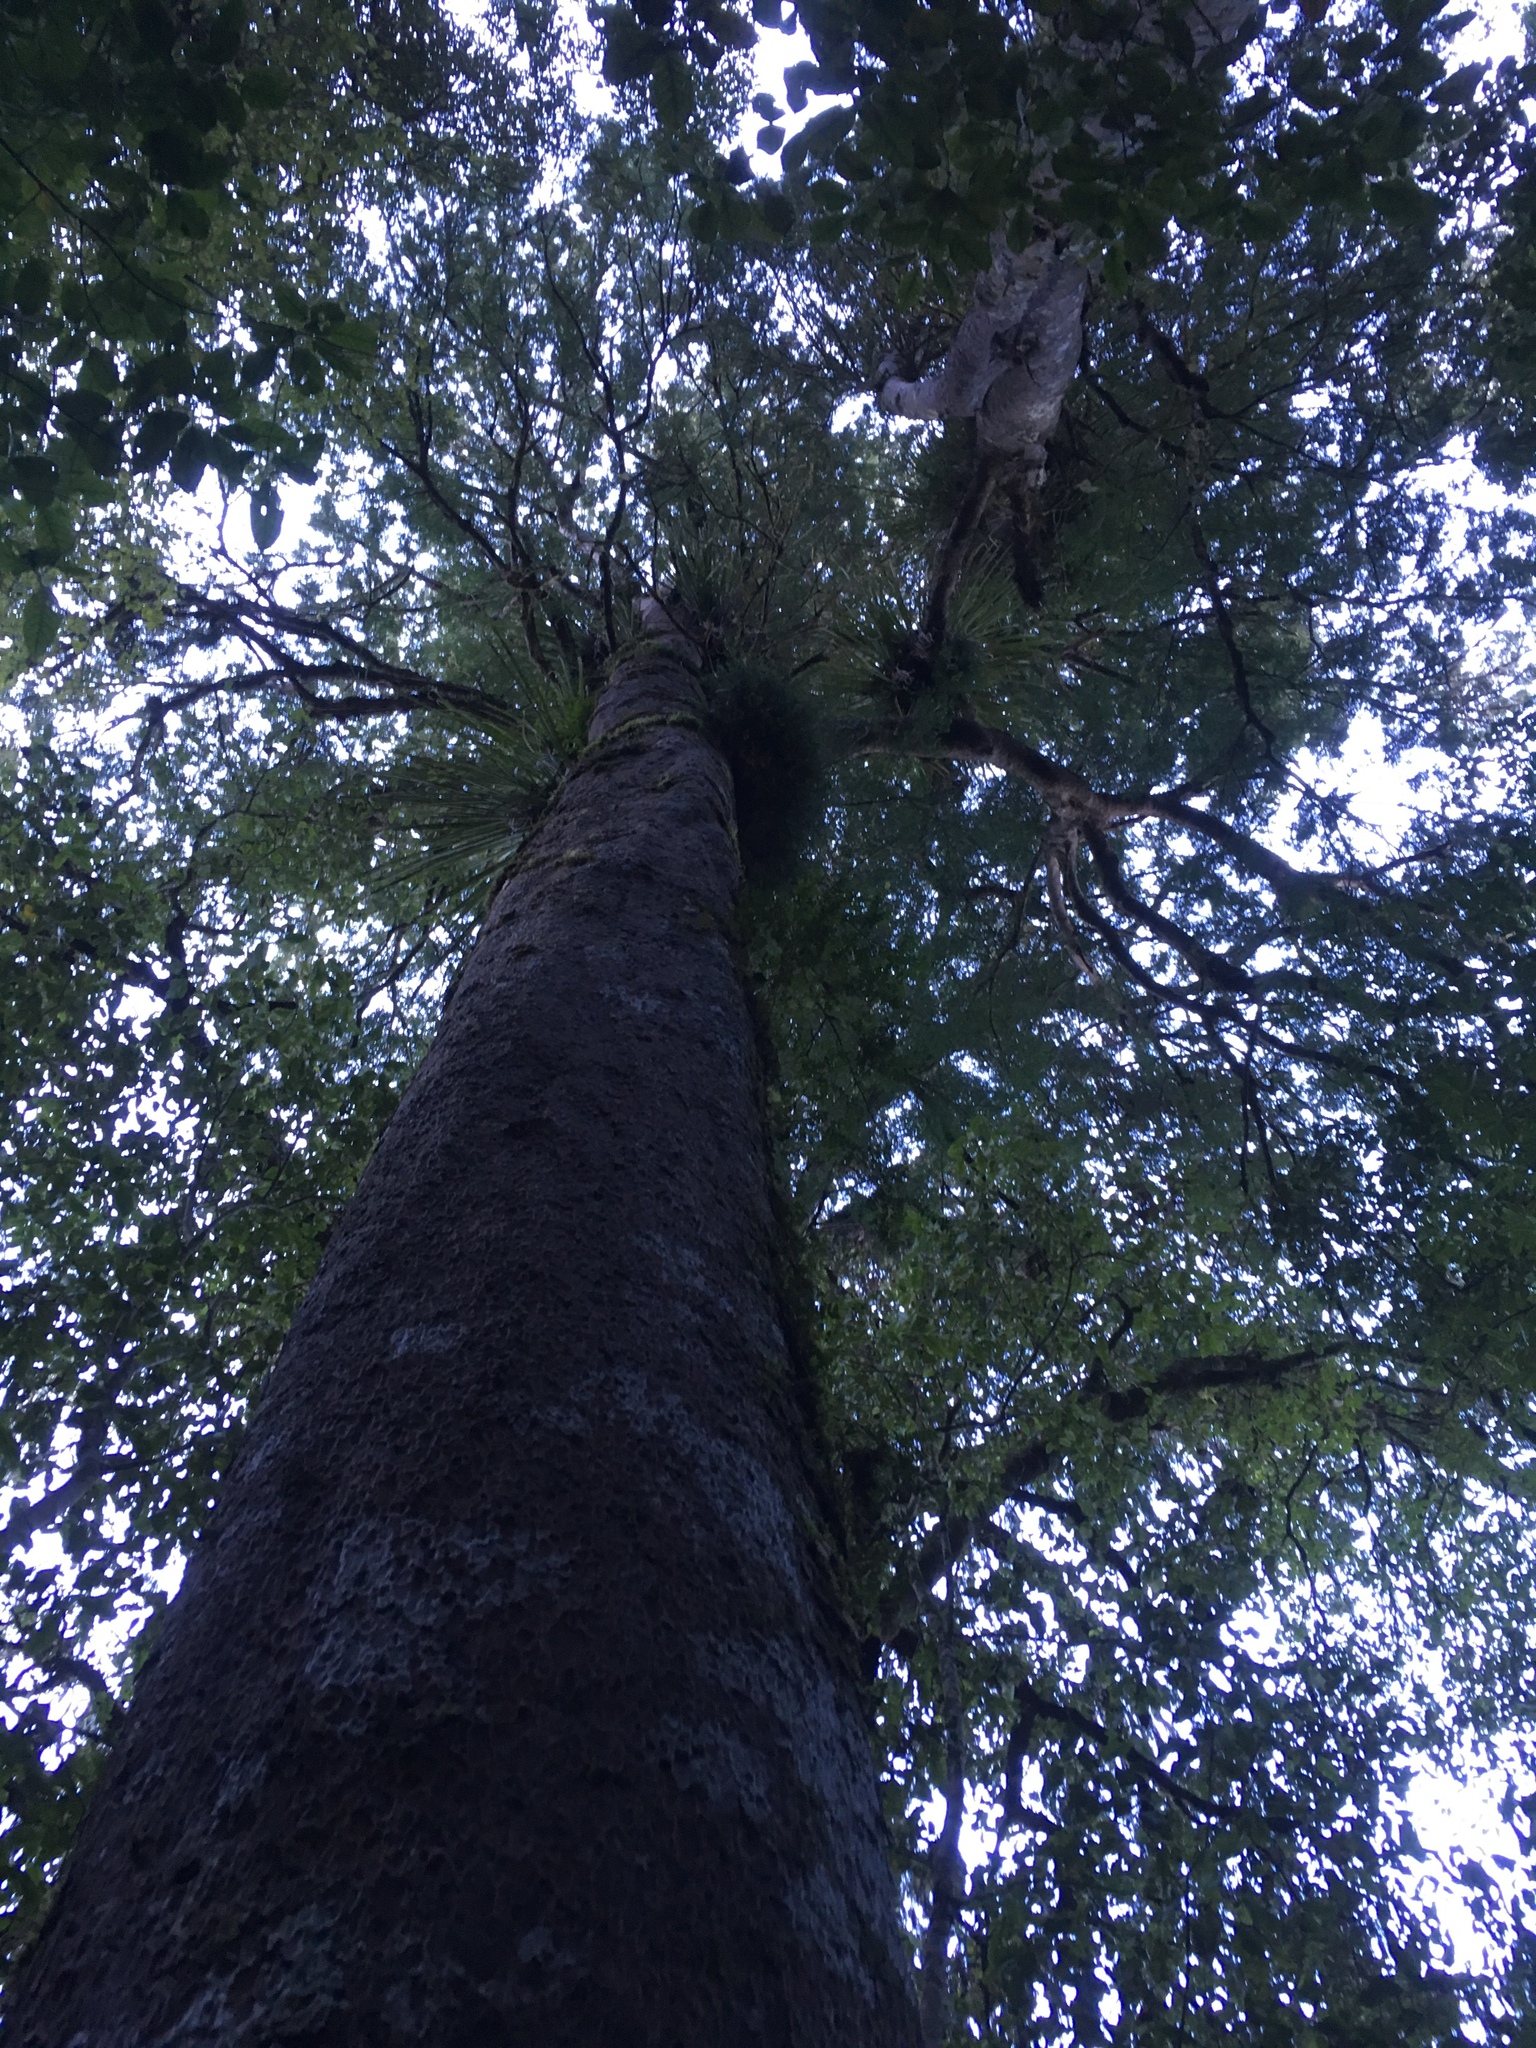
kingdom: Plantae
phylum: Tracheophyta
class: Pinopsida
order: Pinales
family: Podocarpaceae
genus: Prumnopitys
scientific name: Prumnopitys taxifolia
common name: Matai
